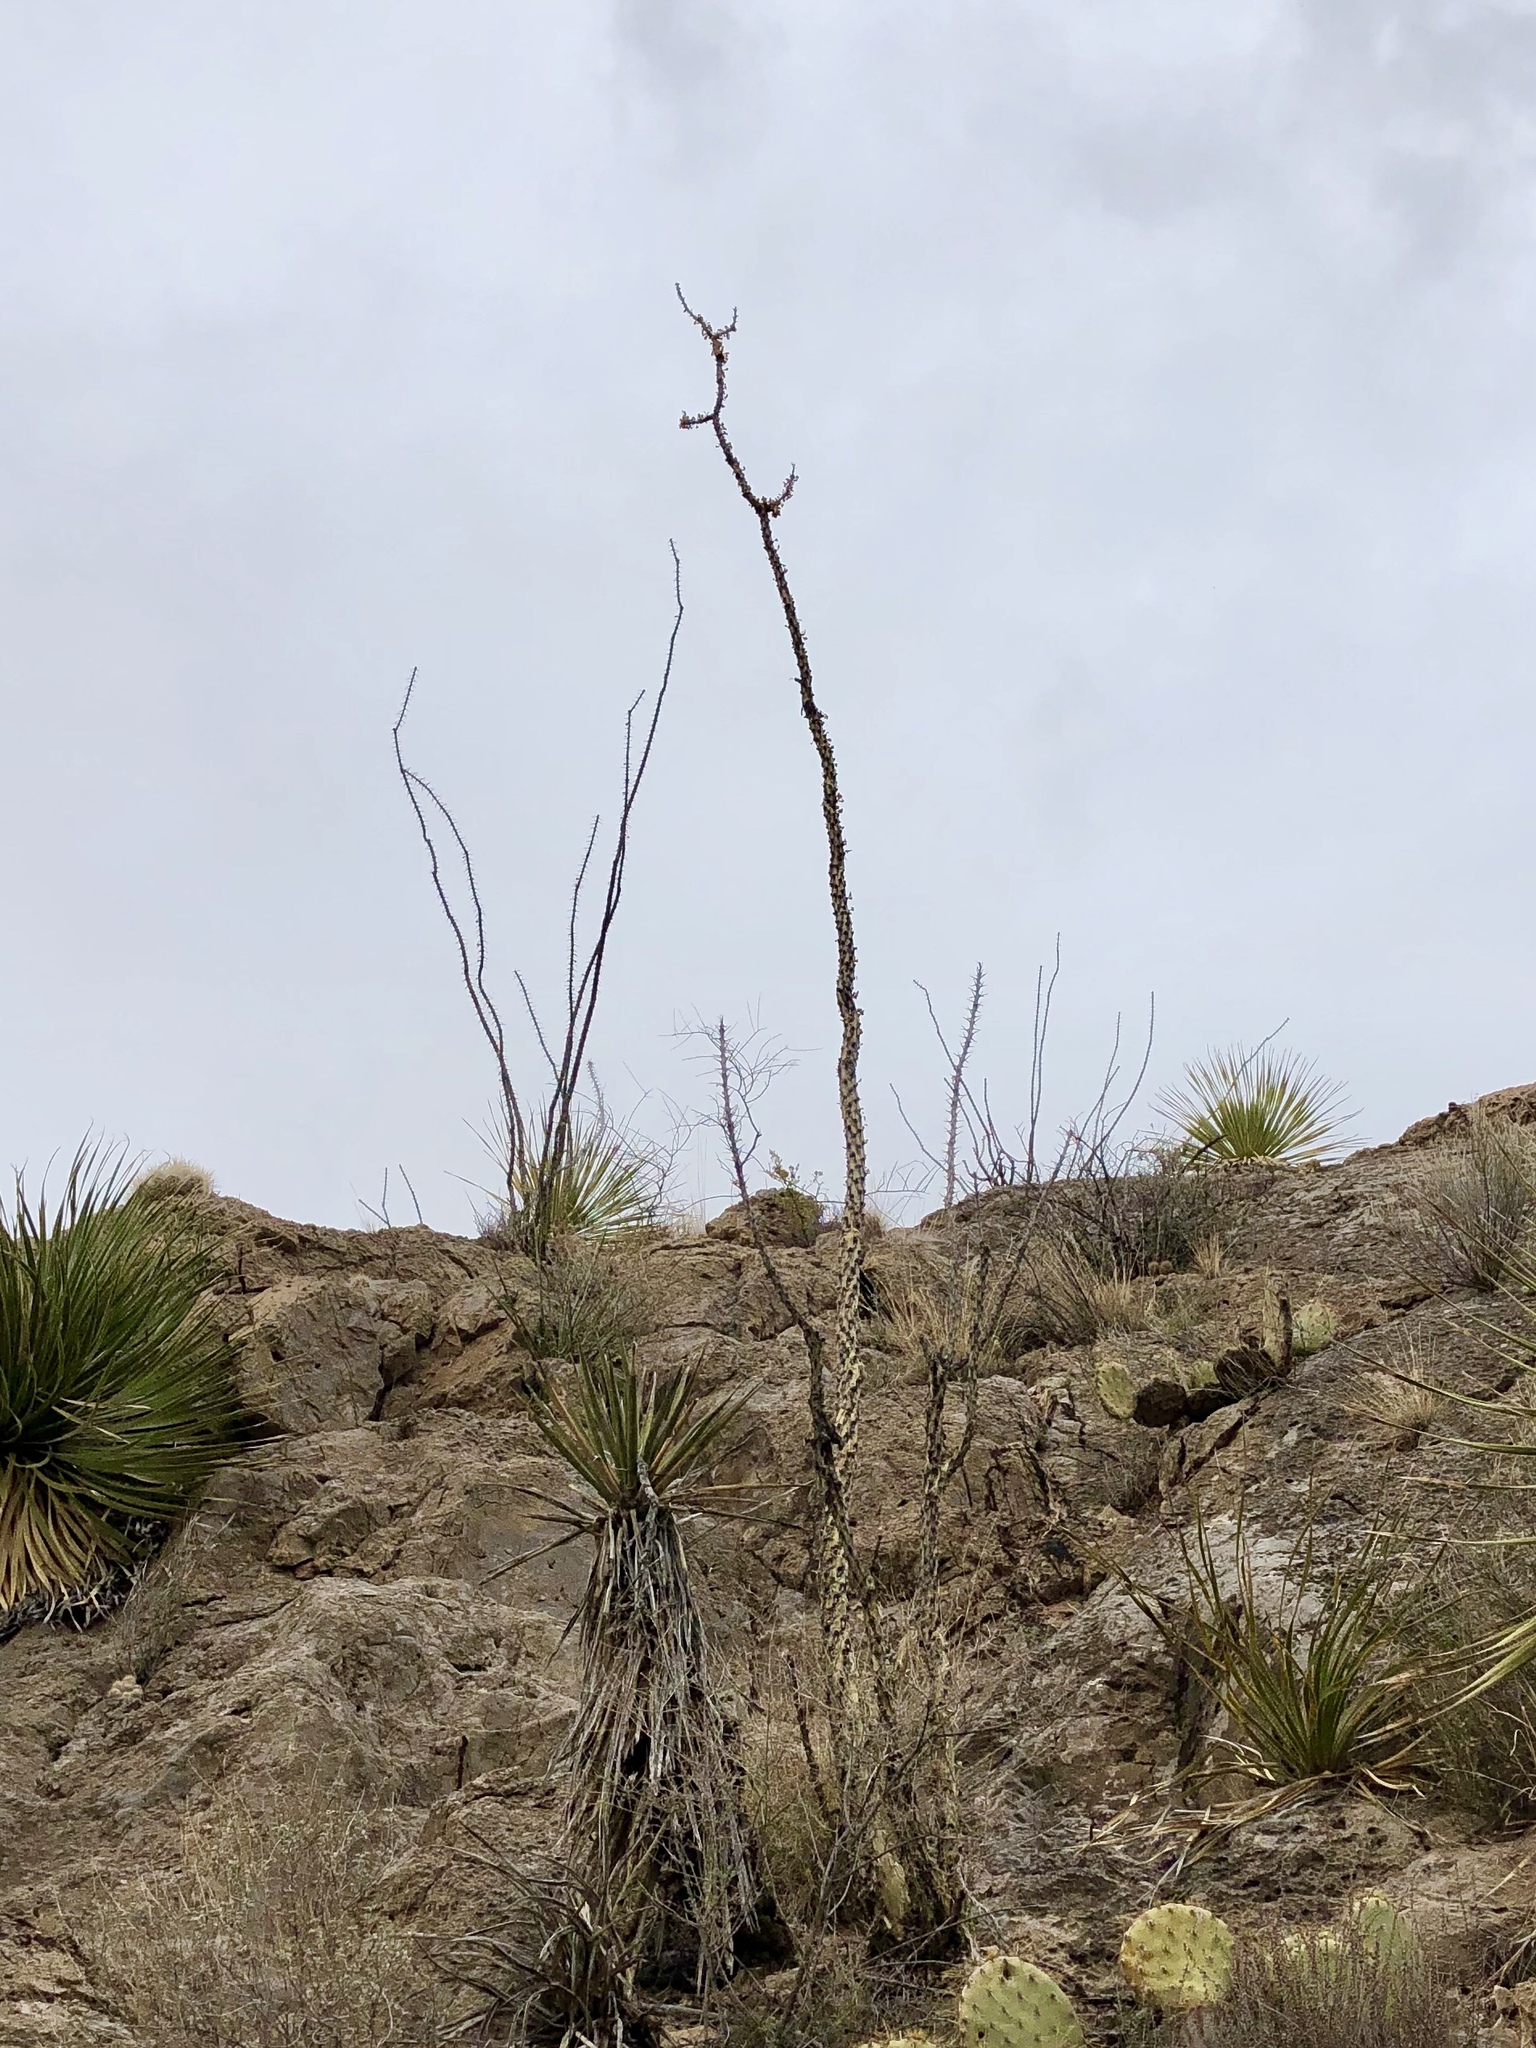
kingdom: Plantae
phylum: Tracheophyta
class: Magnoliopsida
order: Ericales
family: Fouquieriaceae
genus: Fouquieria
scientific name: Fouquieria splendens
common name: Vine-cactus
